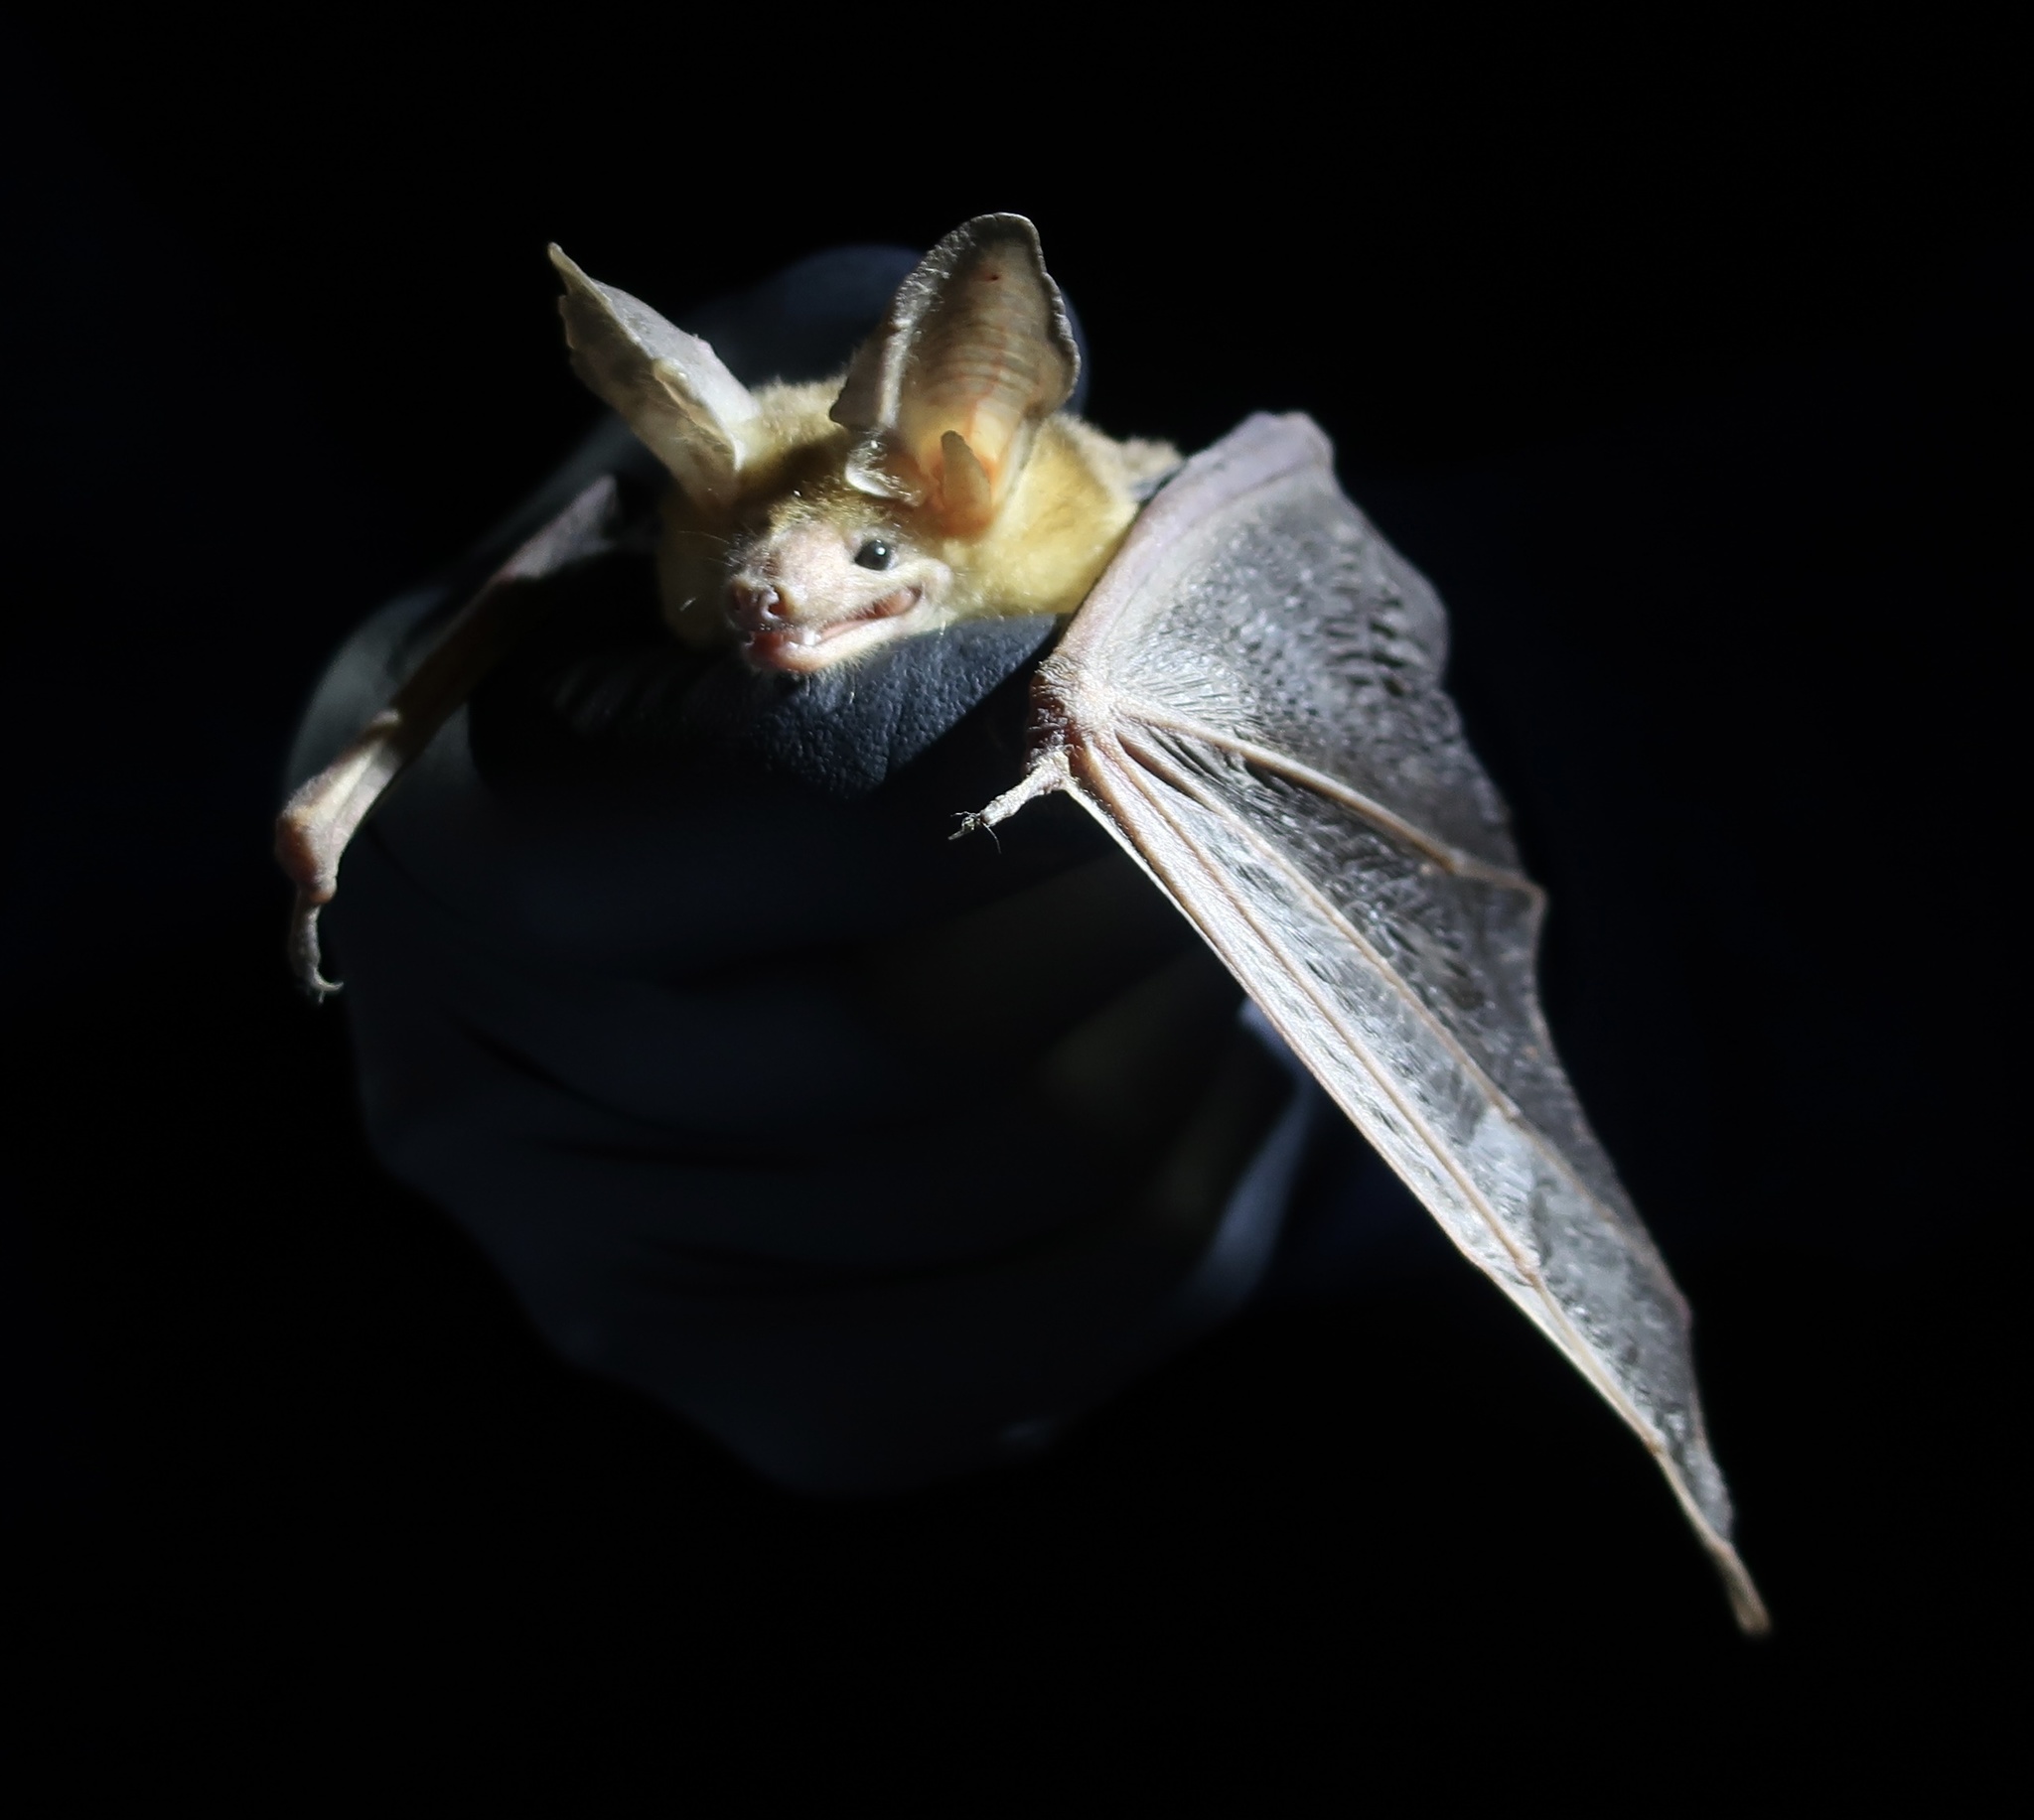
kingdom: Animalia
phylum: Chordata
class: Mammalia
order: Chiroptera
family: Vespertilionidae
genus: Antrozous
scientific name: Antrozous pallidus
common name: Pallid bat
